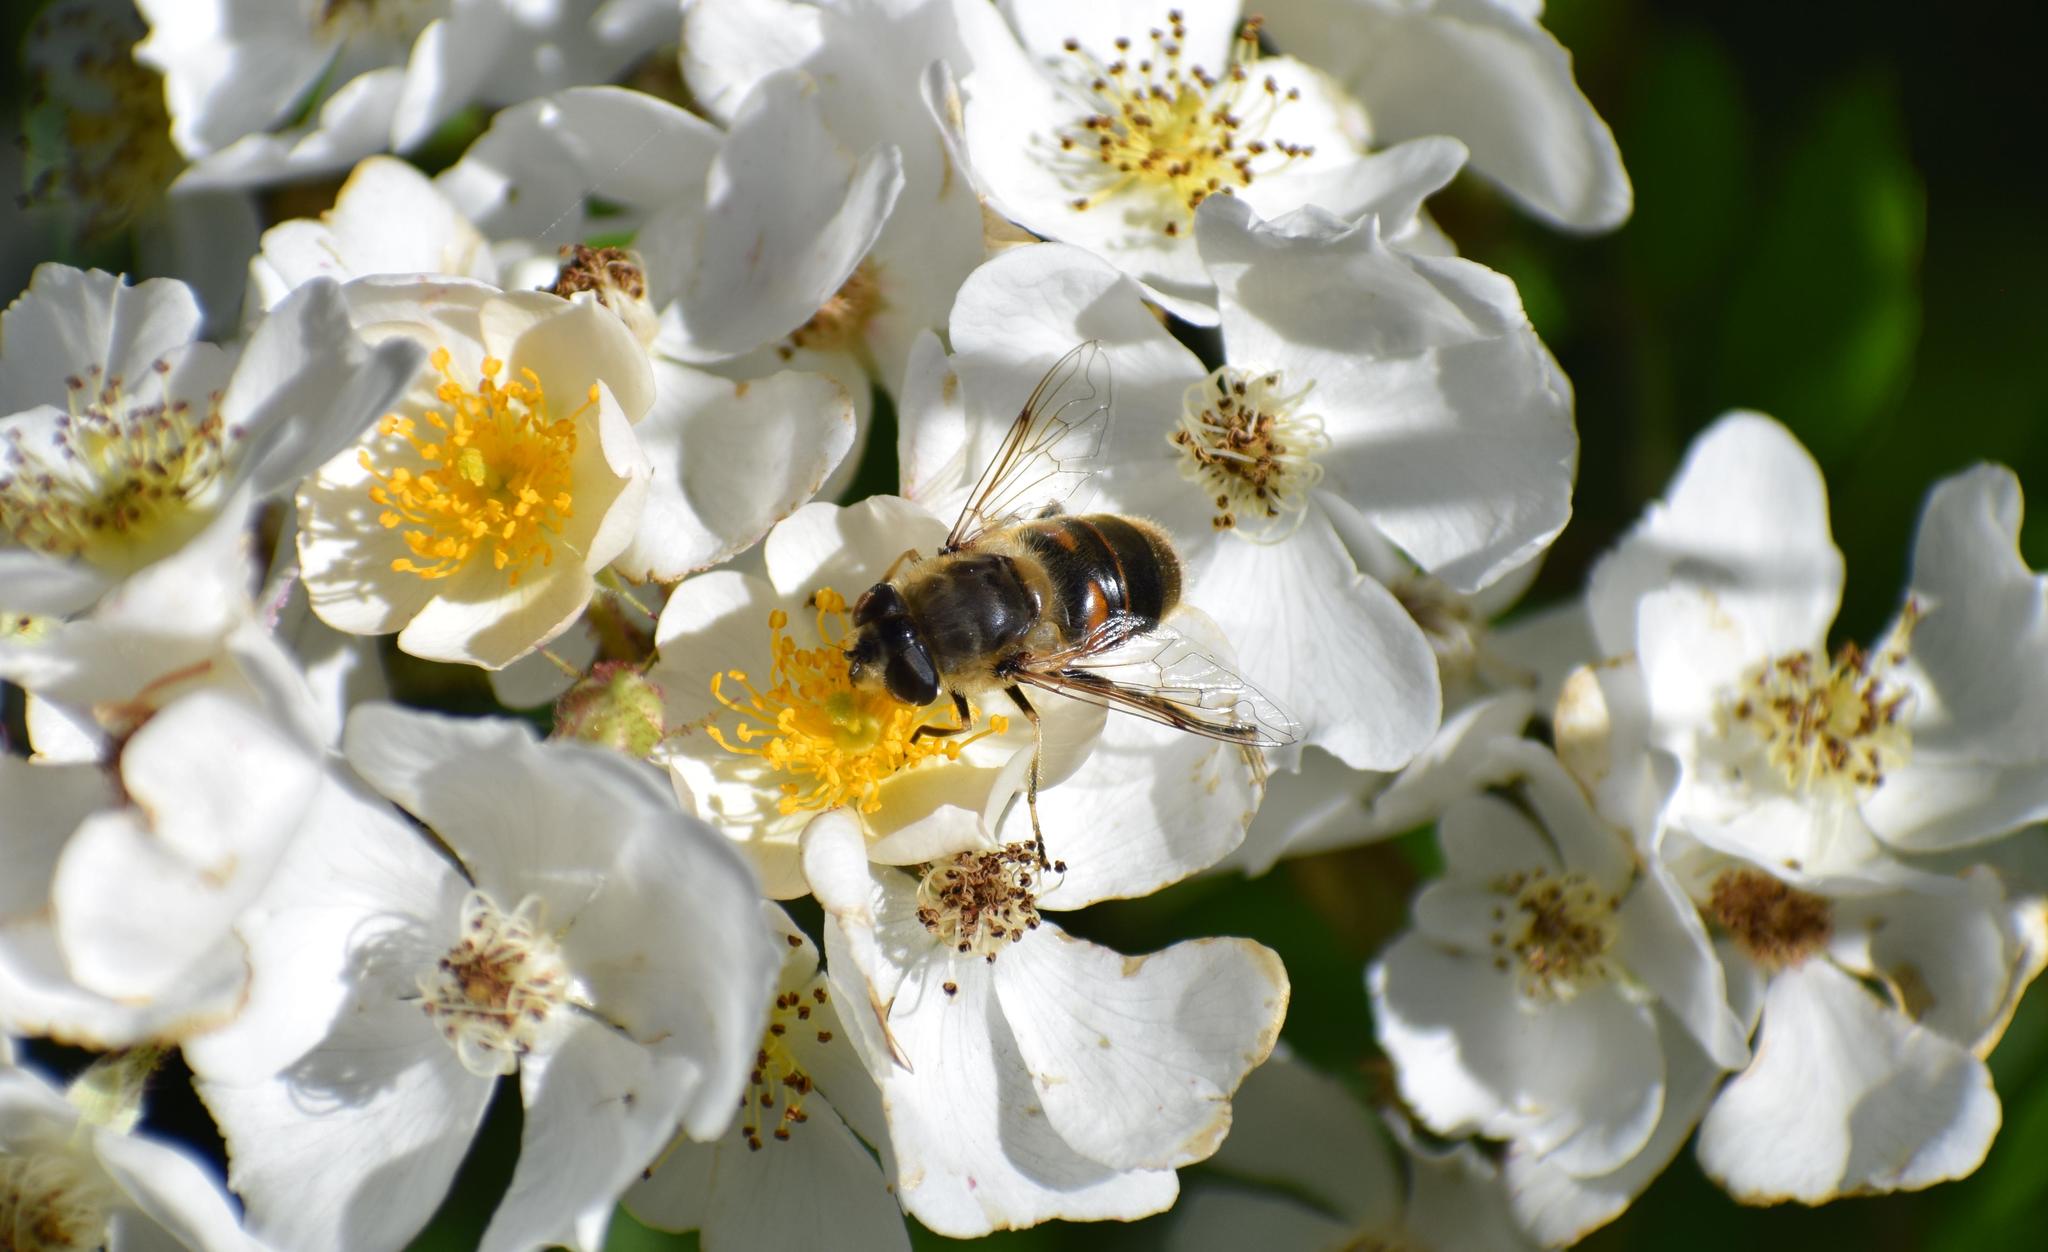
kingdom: Animalia
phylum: Arthropoda
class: Insecta
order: Diptera
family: Syrphidae
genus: Eristalis
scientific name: Eristalis tenax
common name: Drone fly
